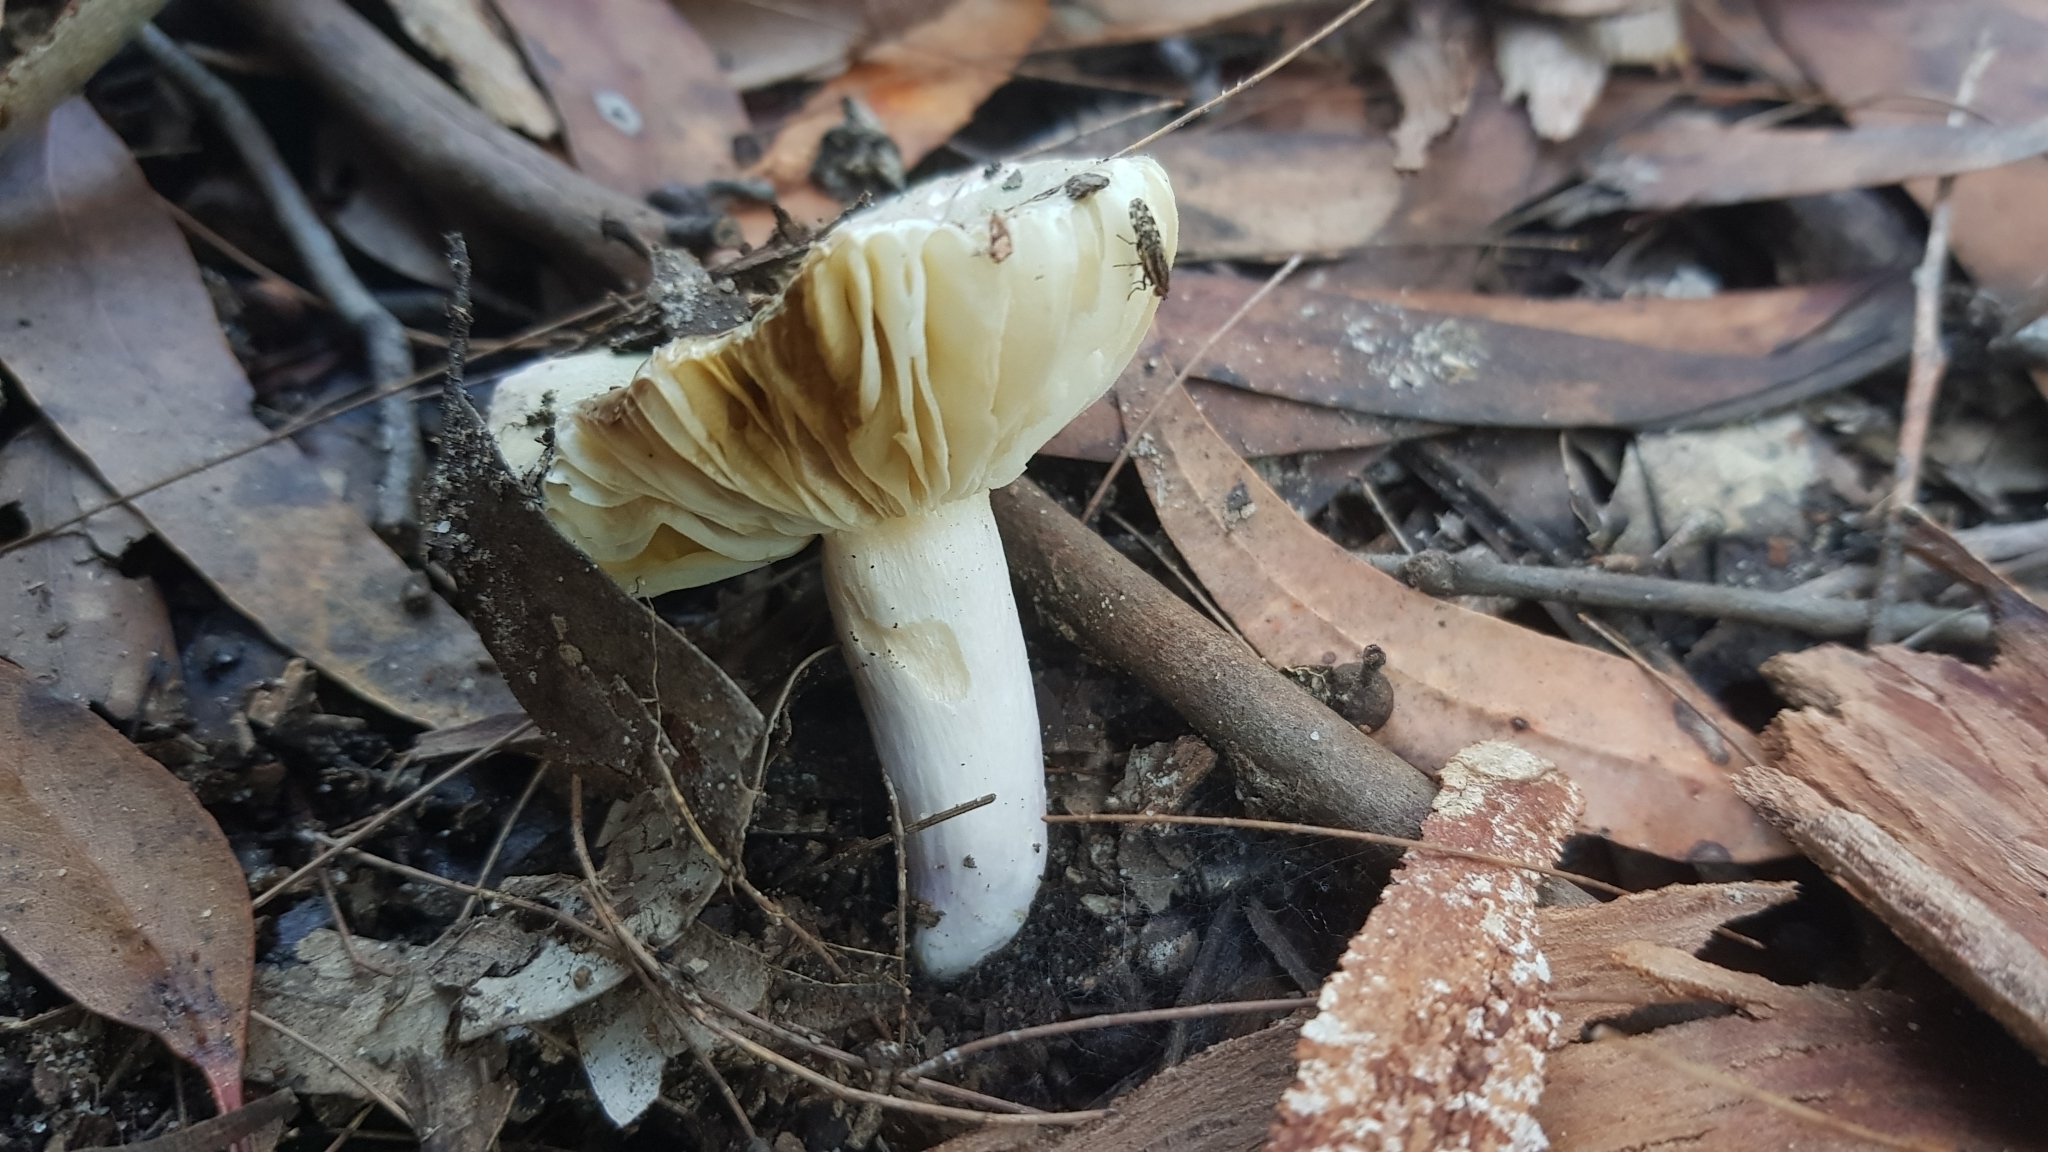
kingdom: Fungi
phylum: Basidiomycota
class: Agaricomycetes
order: Russulales
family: Russulaceae
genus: Russula
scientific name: Russula iterika
